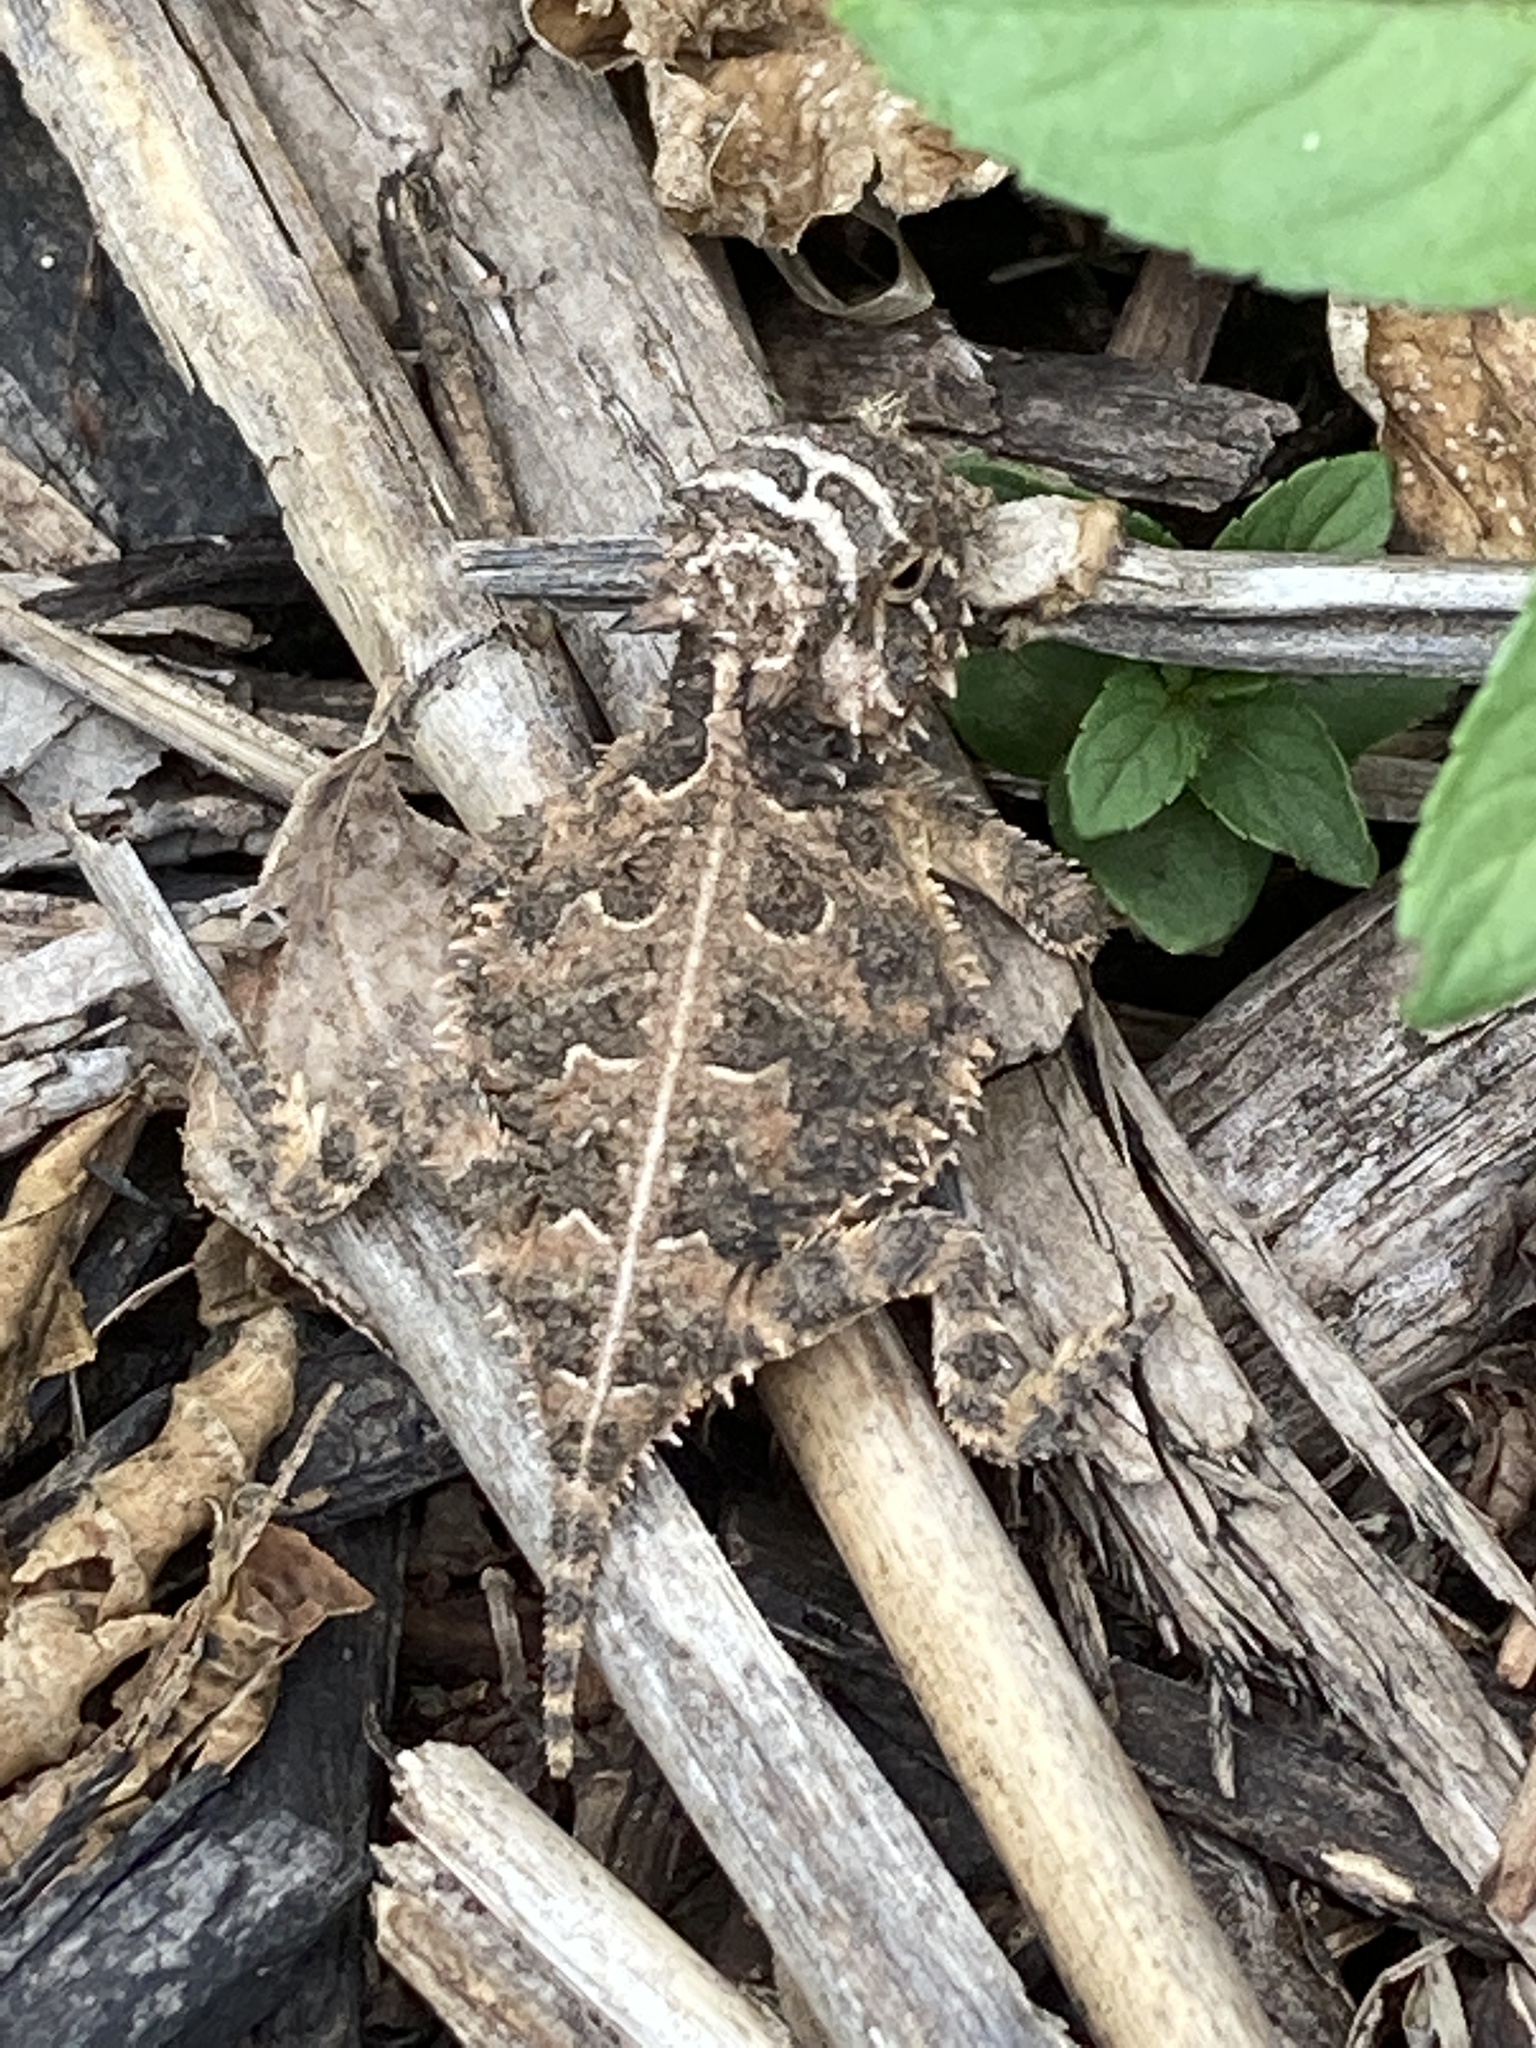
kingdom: Animalia
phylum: Chordata
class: Squamata
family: Phrynosomatidae
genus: Phrynosoma
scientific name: Phrynosoma cornutum
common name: Texas horned lizard
